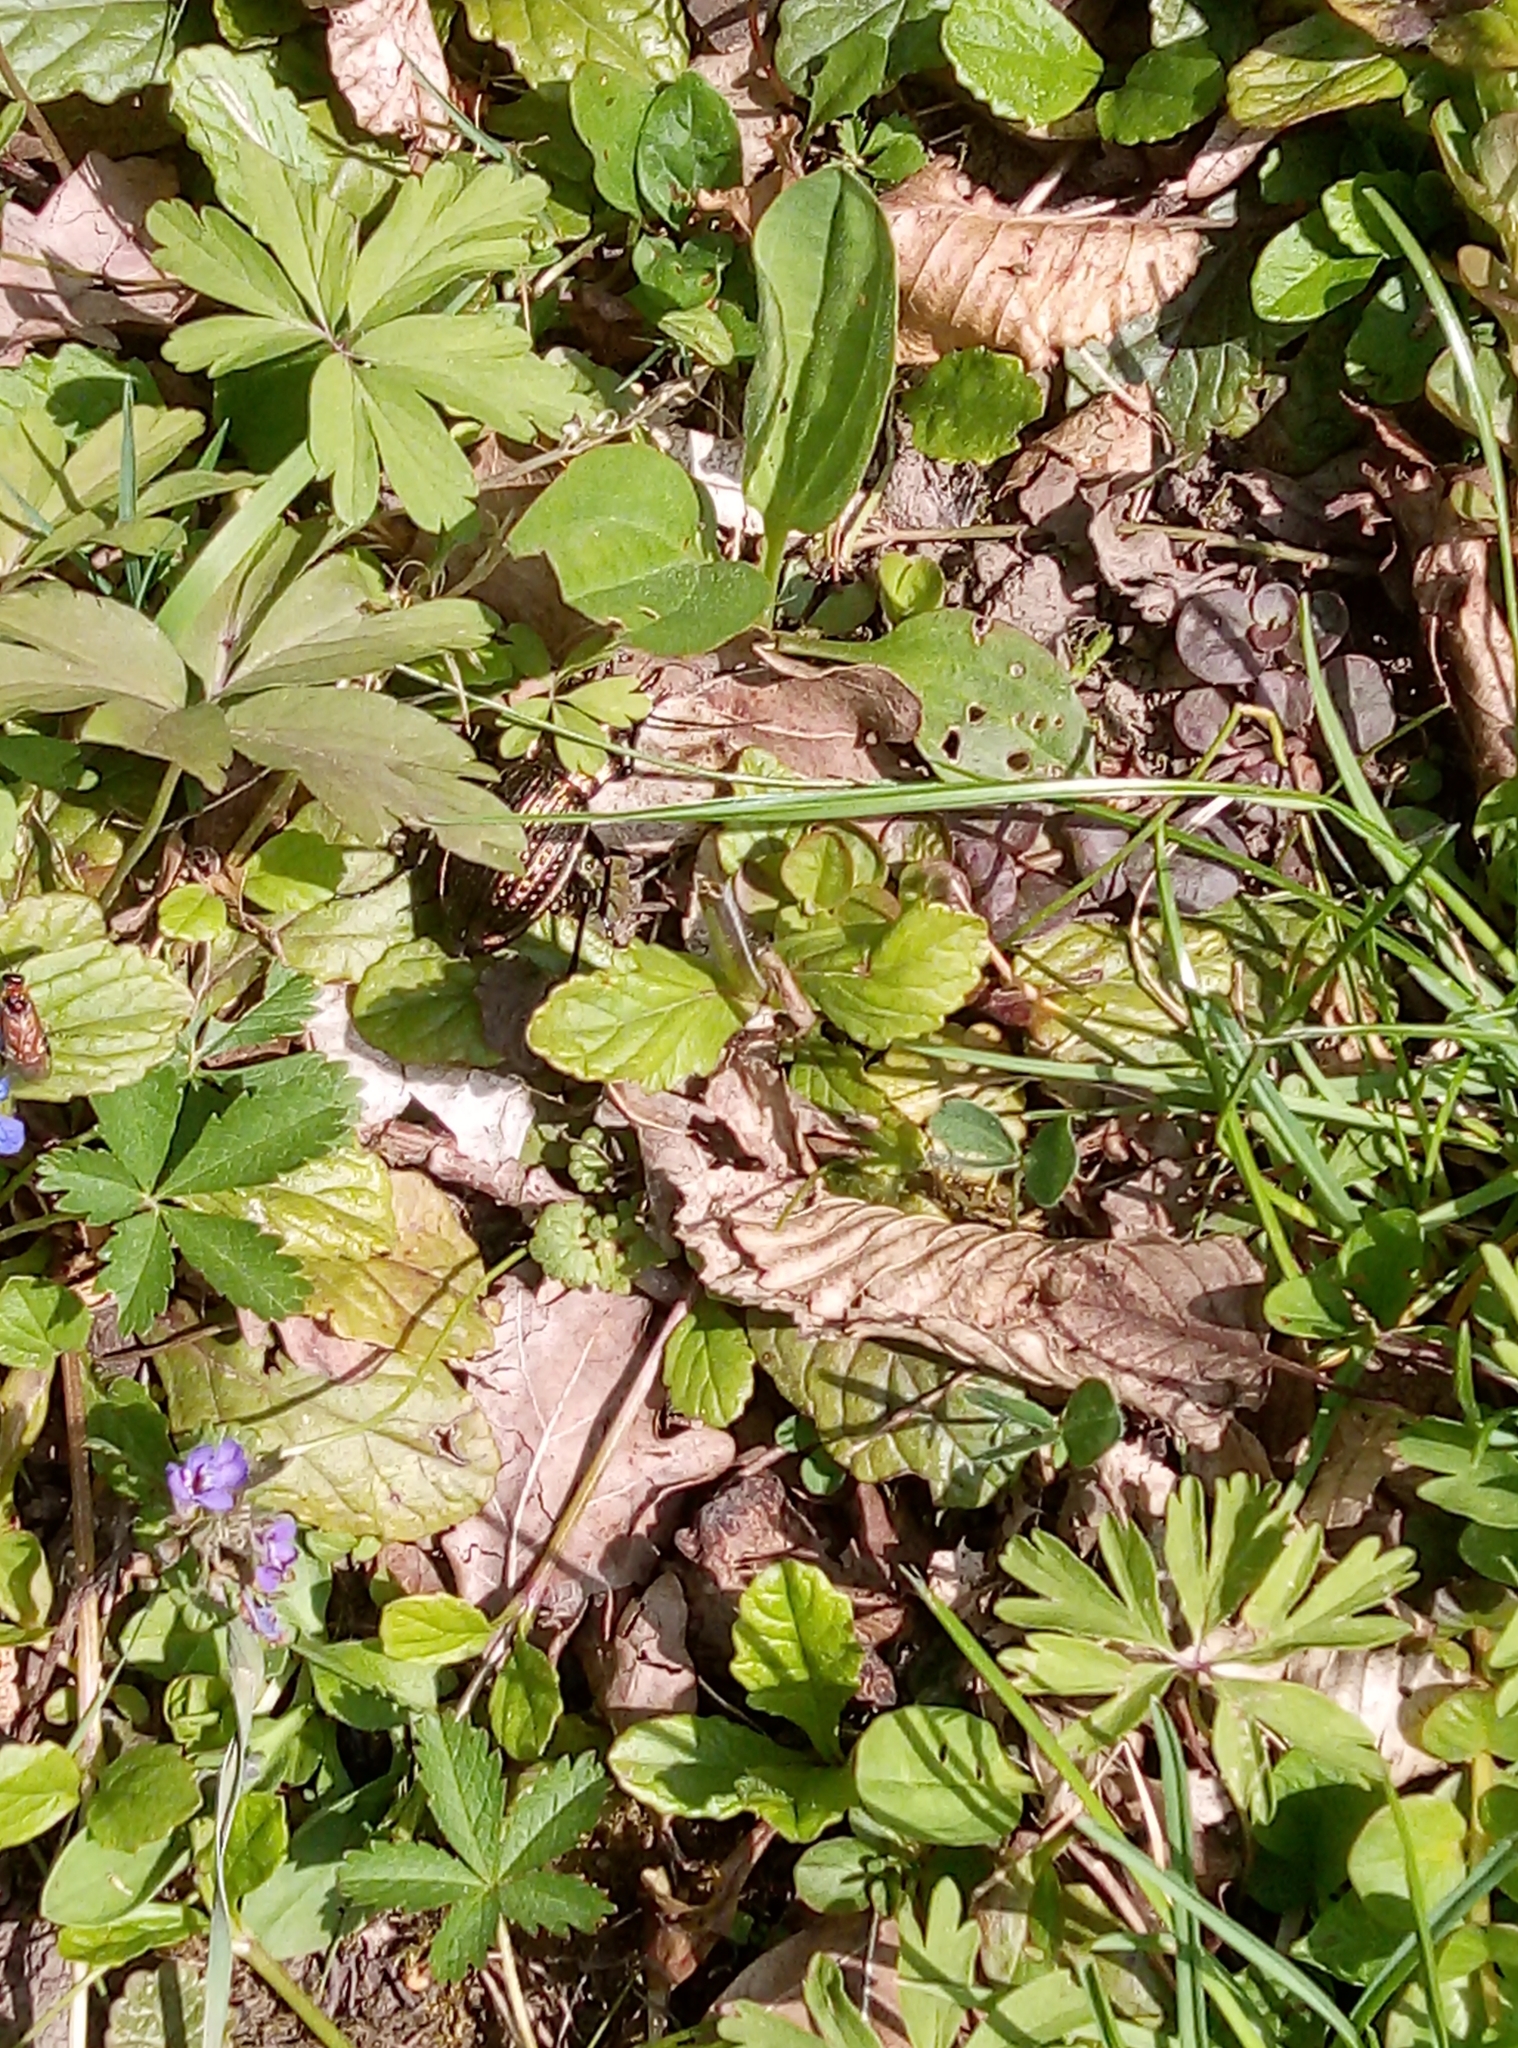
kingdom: Animalia
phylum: Arthropoda
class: Insecta
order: Coleoptera
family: Carabidae
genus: Carabus
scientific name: Carabus ulrichii
